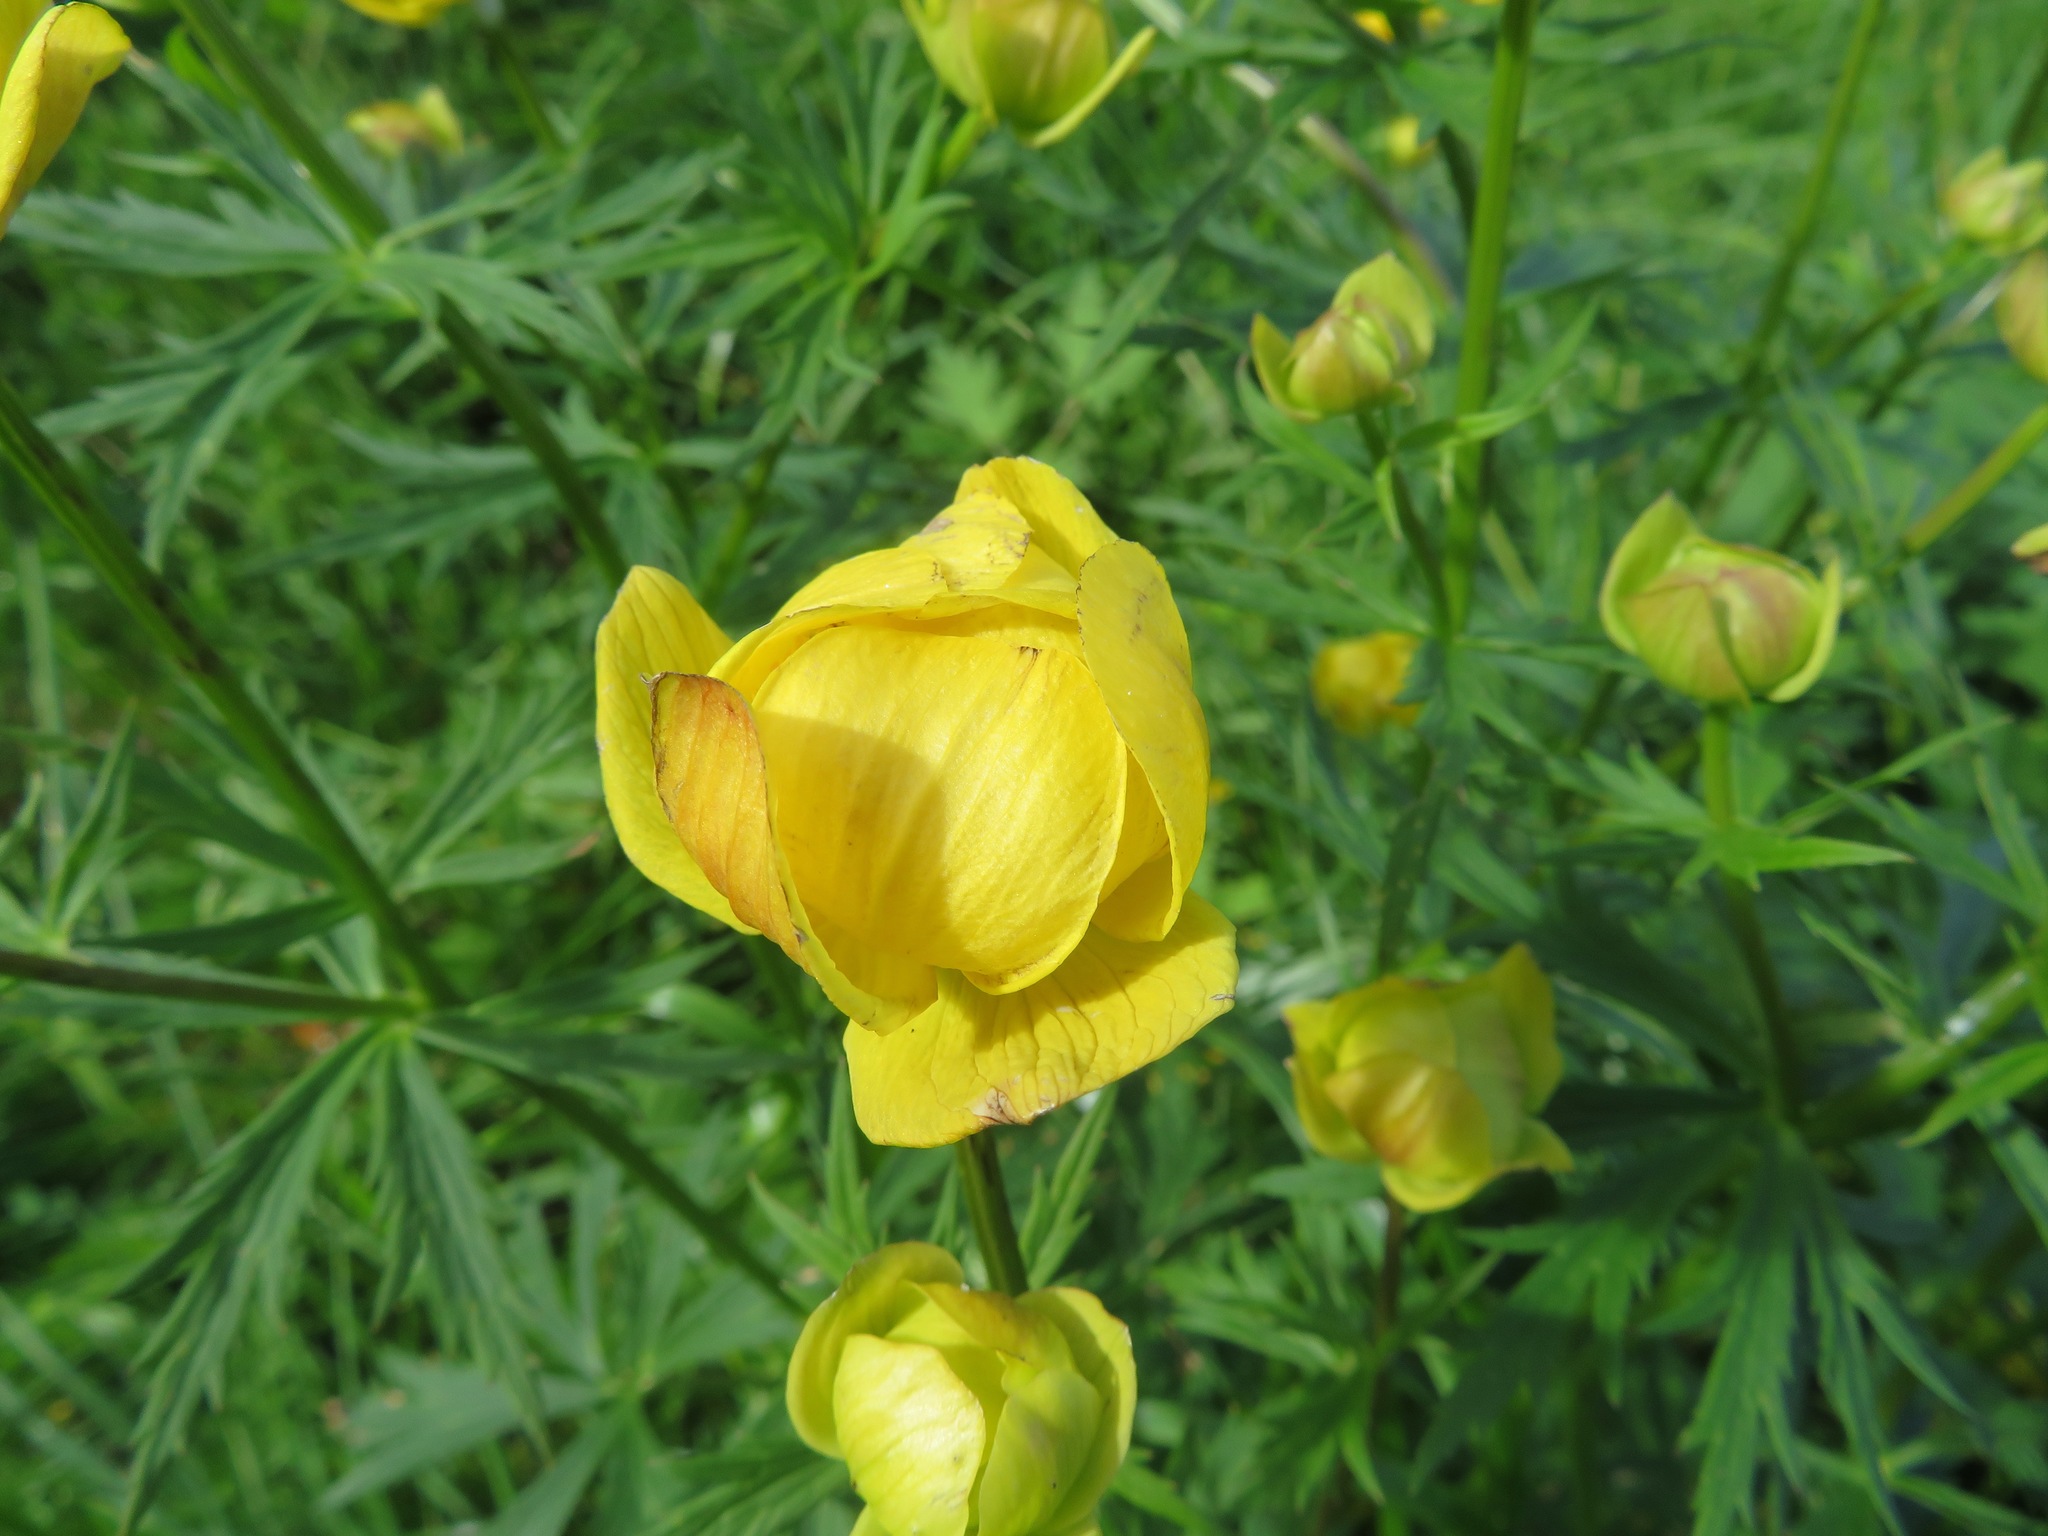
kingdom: Plantae
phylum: Tracheophyta
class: Magnoliopsida
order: Ranunculales
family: Ranunculaceae
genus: Trollius
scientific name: Trollius europaeus
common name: European globeflower
